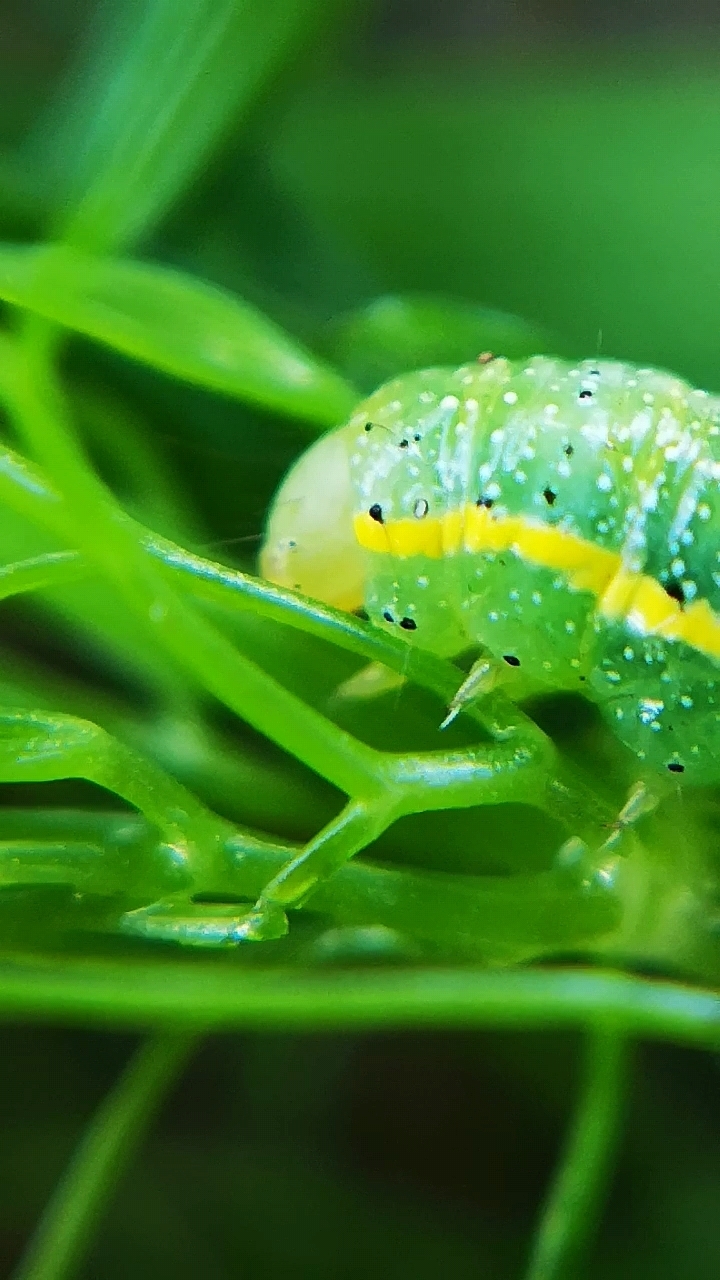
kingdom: Animalia
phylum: Arthropoda
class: Insecta
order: Lepidoptera
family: Noctuidae
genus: Lacanobia
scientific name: Lacanobia oleracea
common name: Bright-line brown-eye
